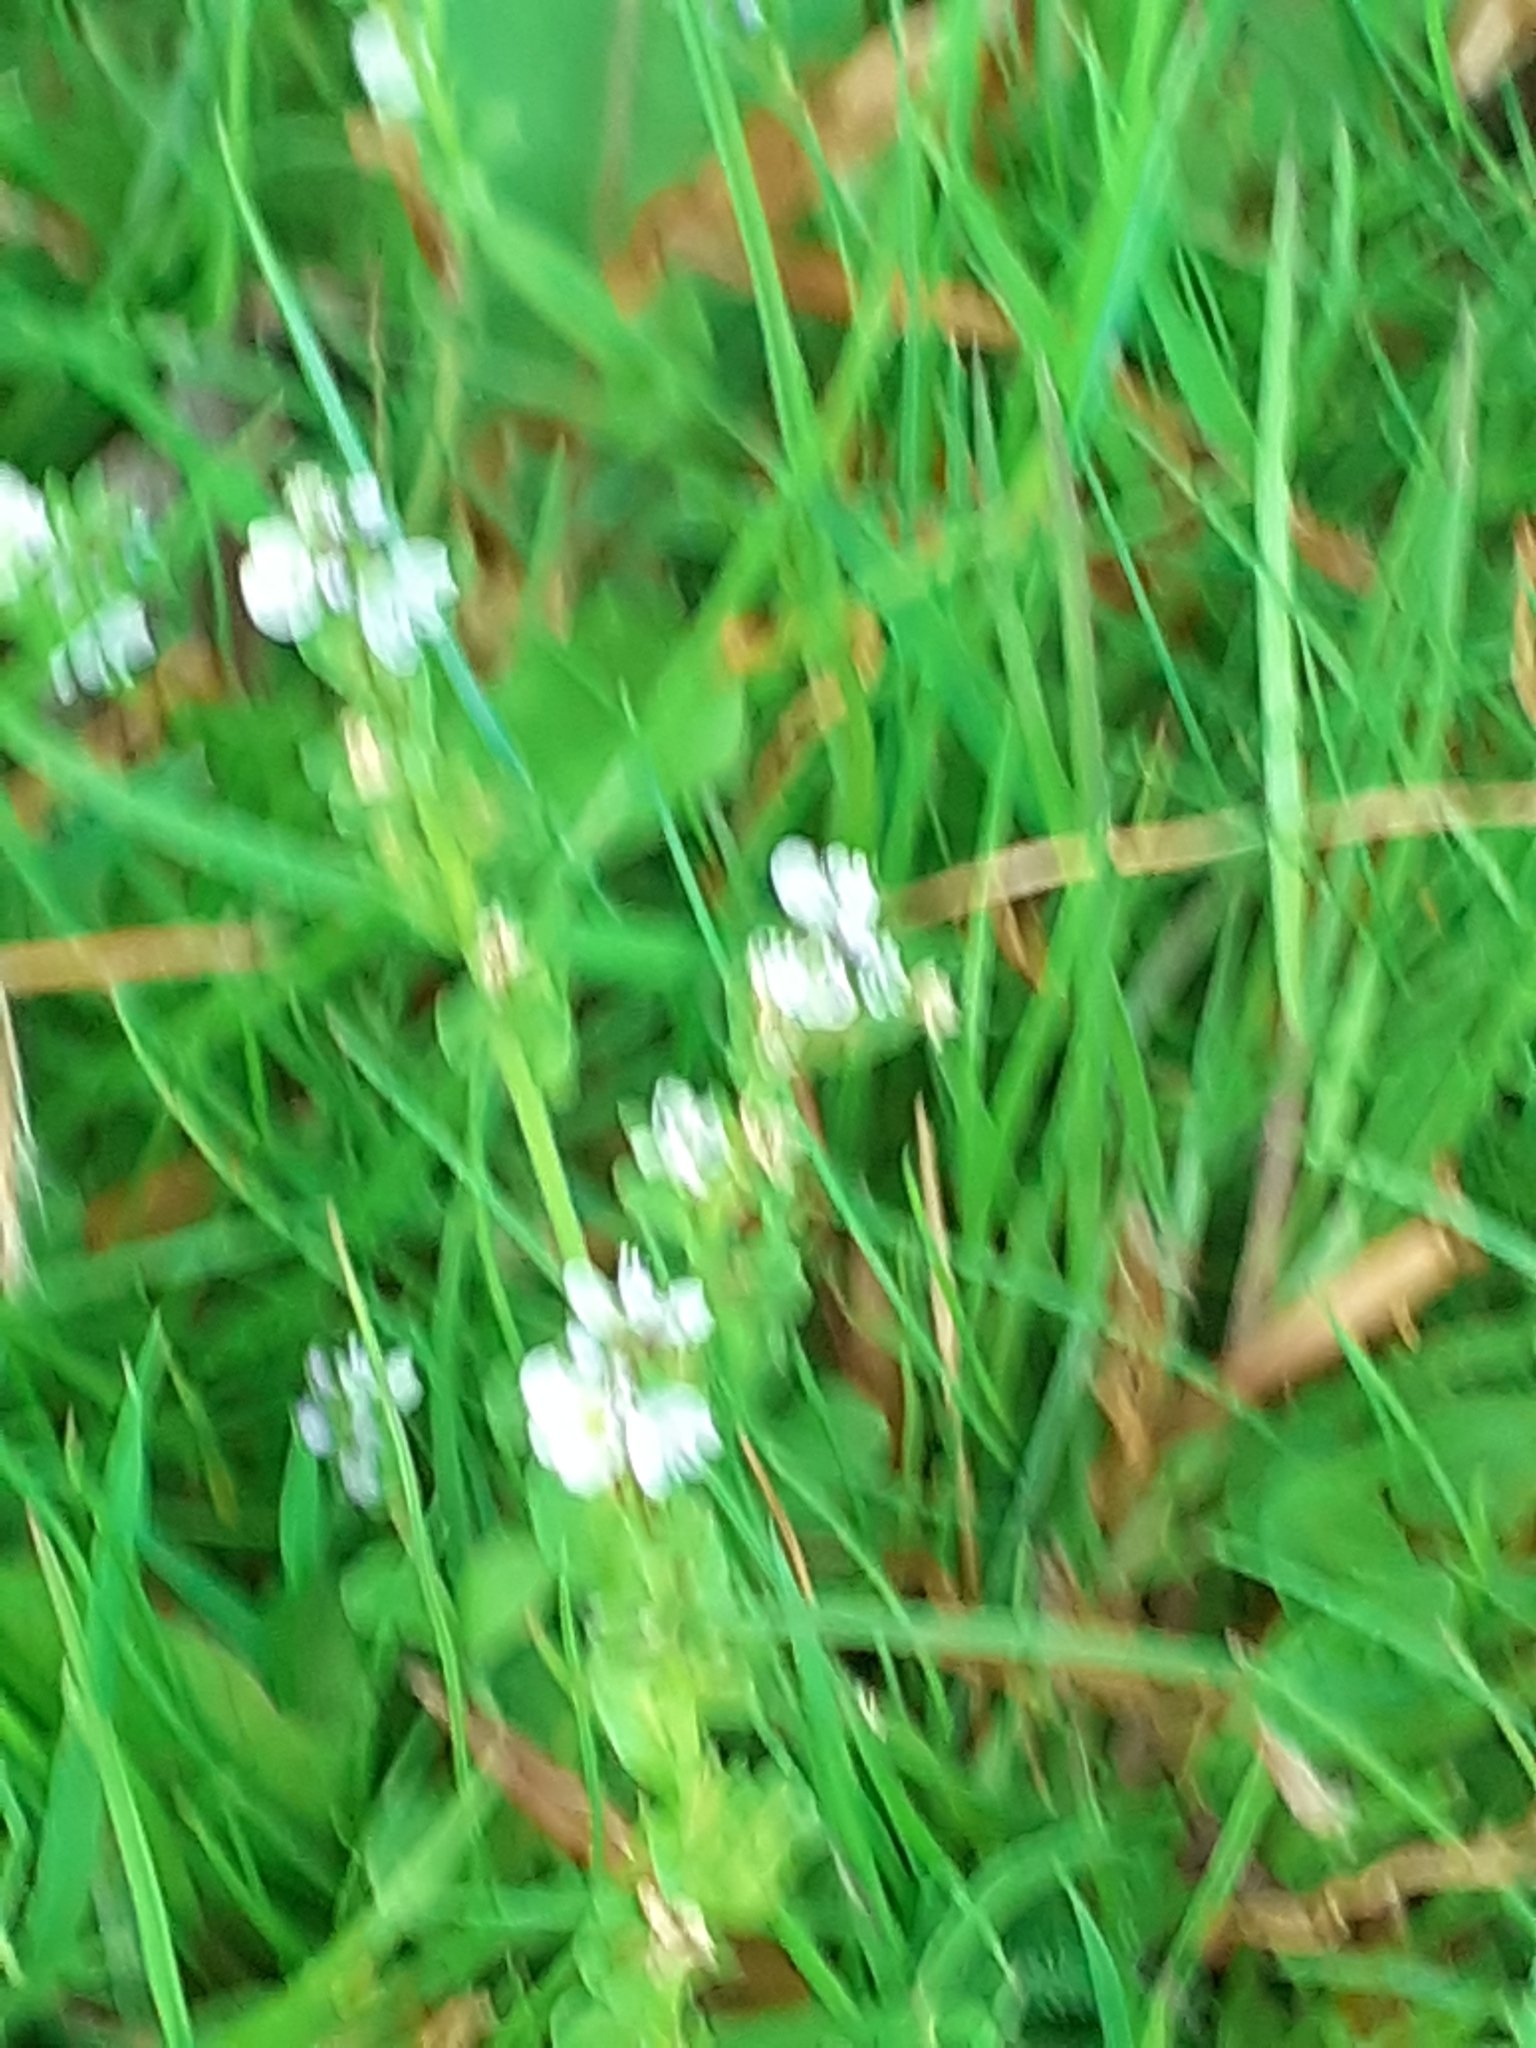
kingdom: Plantae
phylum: Tracheophyta
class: Magnoliopsida
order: Lamiales
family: Plantaginaceae
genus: Veronica
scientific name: Veronica serpyllifolia
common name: Thyme-leaved speedwell
